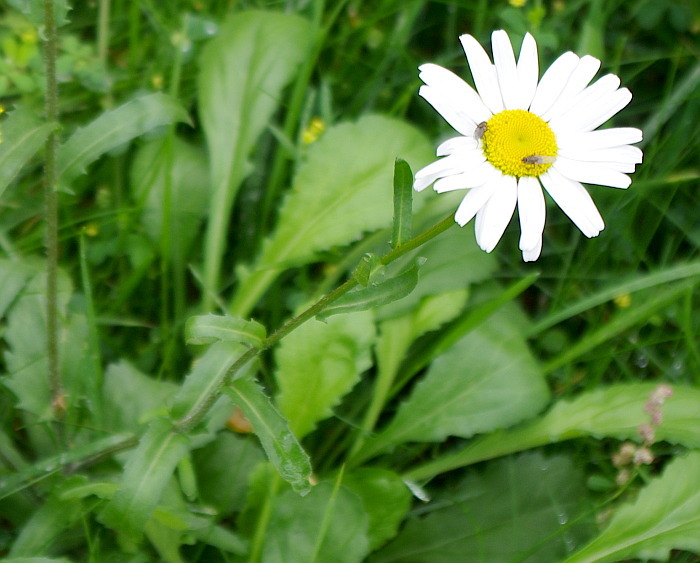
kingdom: Plantae
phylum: Tracheophyta
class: Magnoliopsida
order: Asterales
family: Asteraceae
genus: Leucanthemum
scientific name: Leucanthemum vulgare
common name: Oxeye daisy
